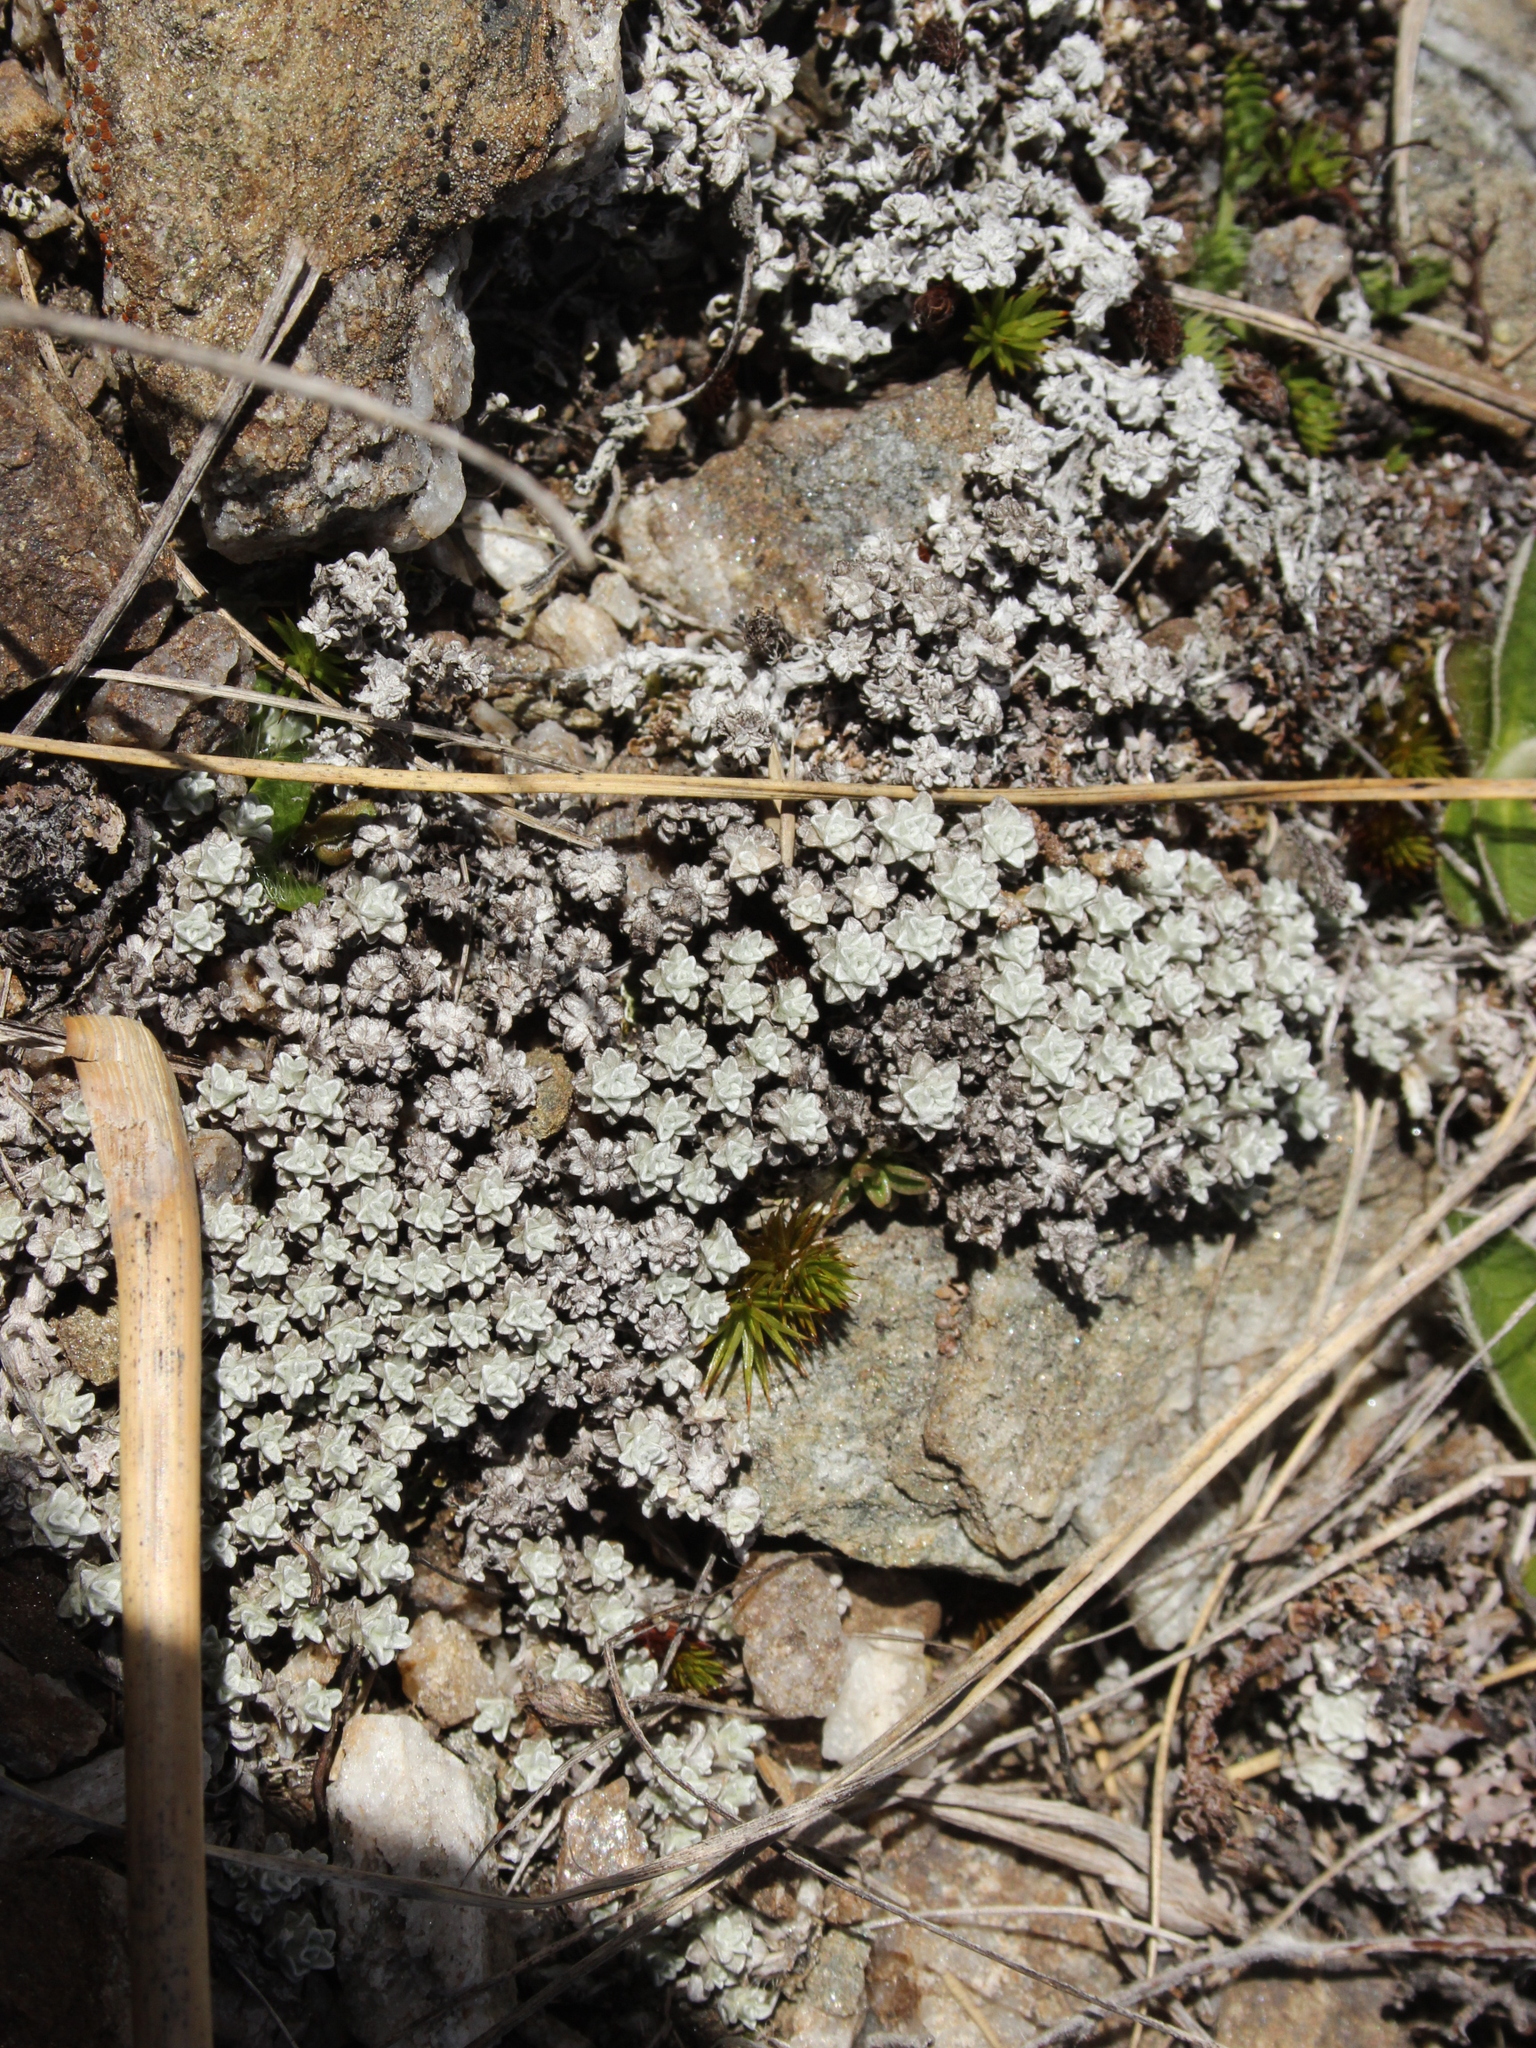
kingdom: Plantae
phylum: Tracheophyta
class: Magnoliopsida
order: Asterales
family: Asteraceae
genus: Raoulia
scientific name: Raoulia apicinigra
